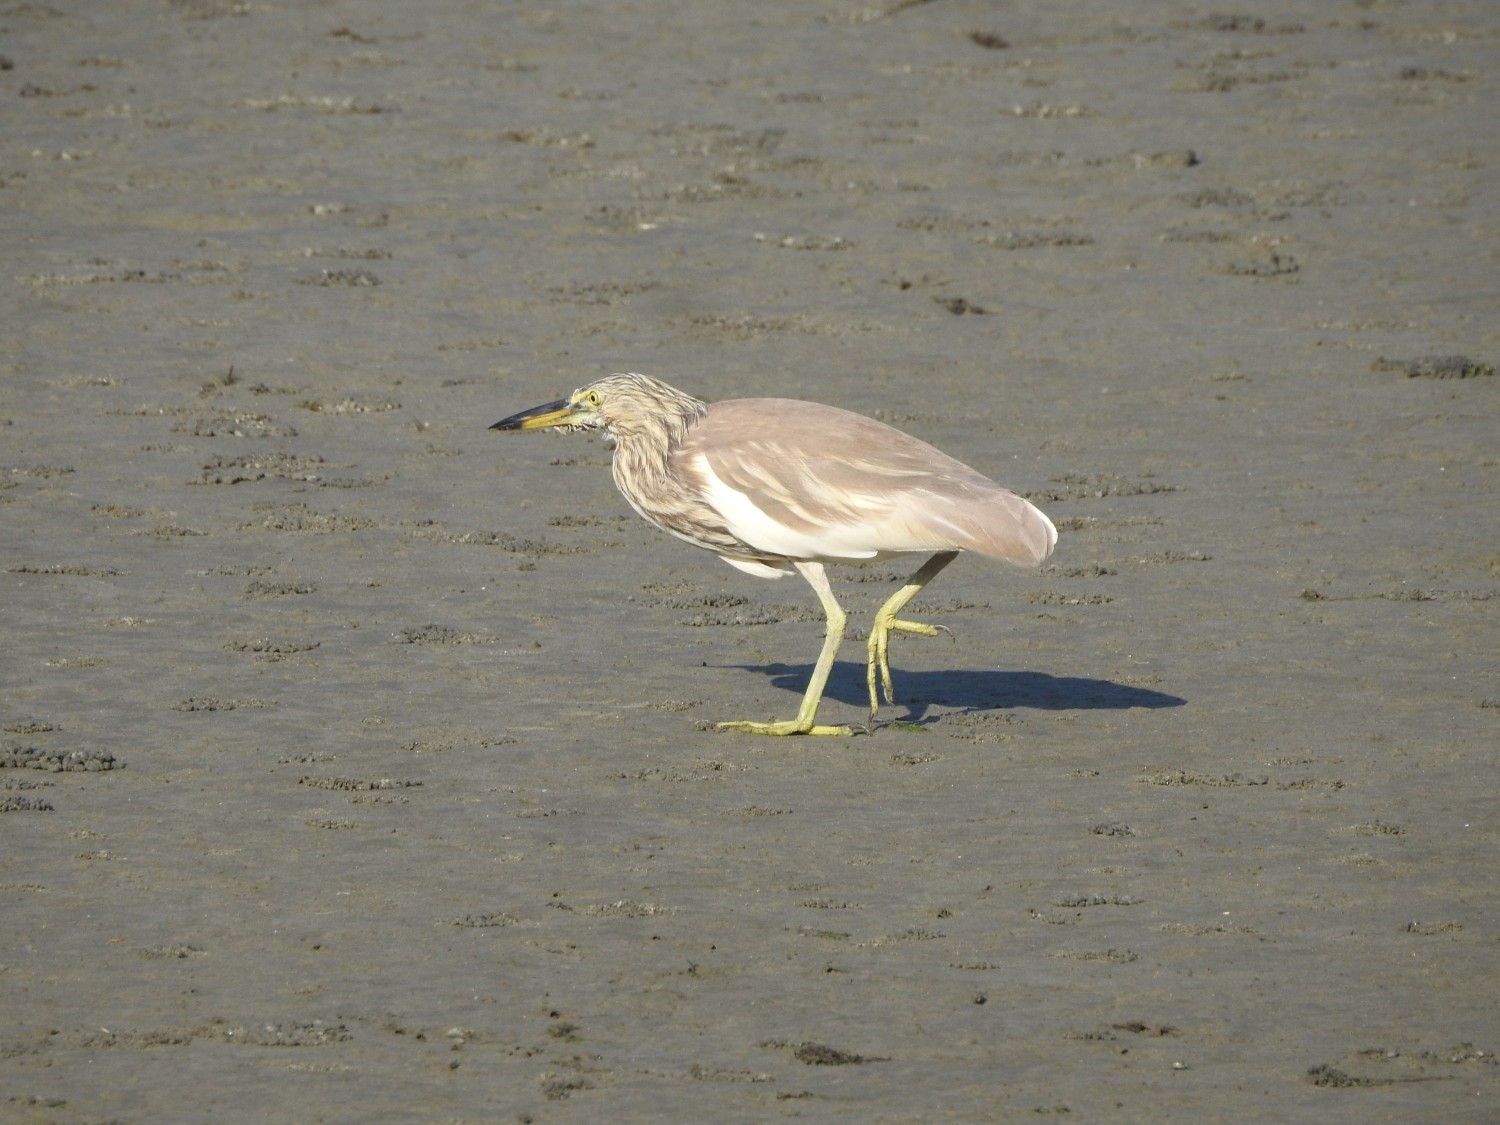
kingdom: Animalia
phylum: Chordata
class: Aves
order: Pelecaniformes
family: Ardeidae
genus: Ardeola
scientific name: Ardeola grayii
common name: Indian pond heron
